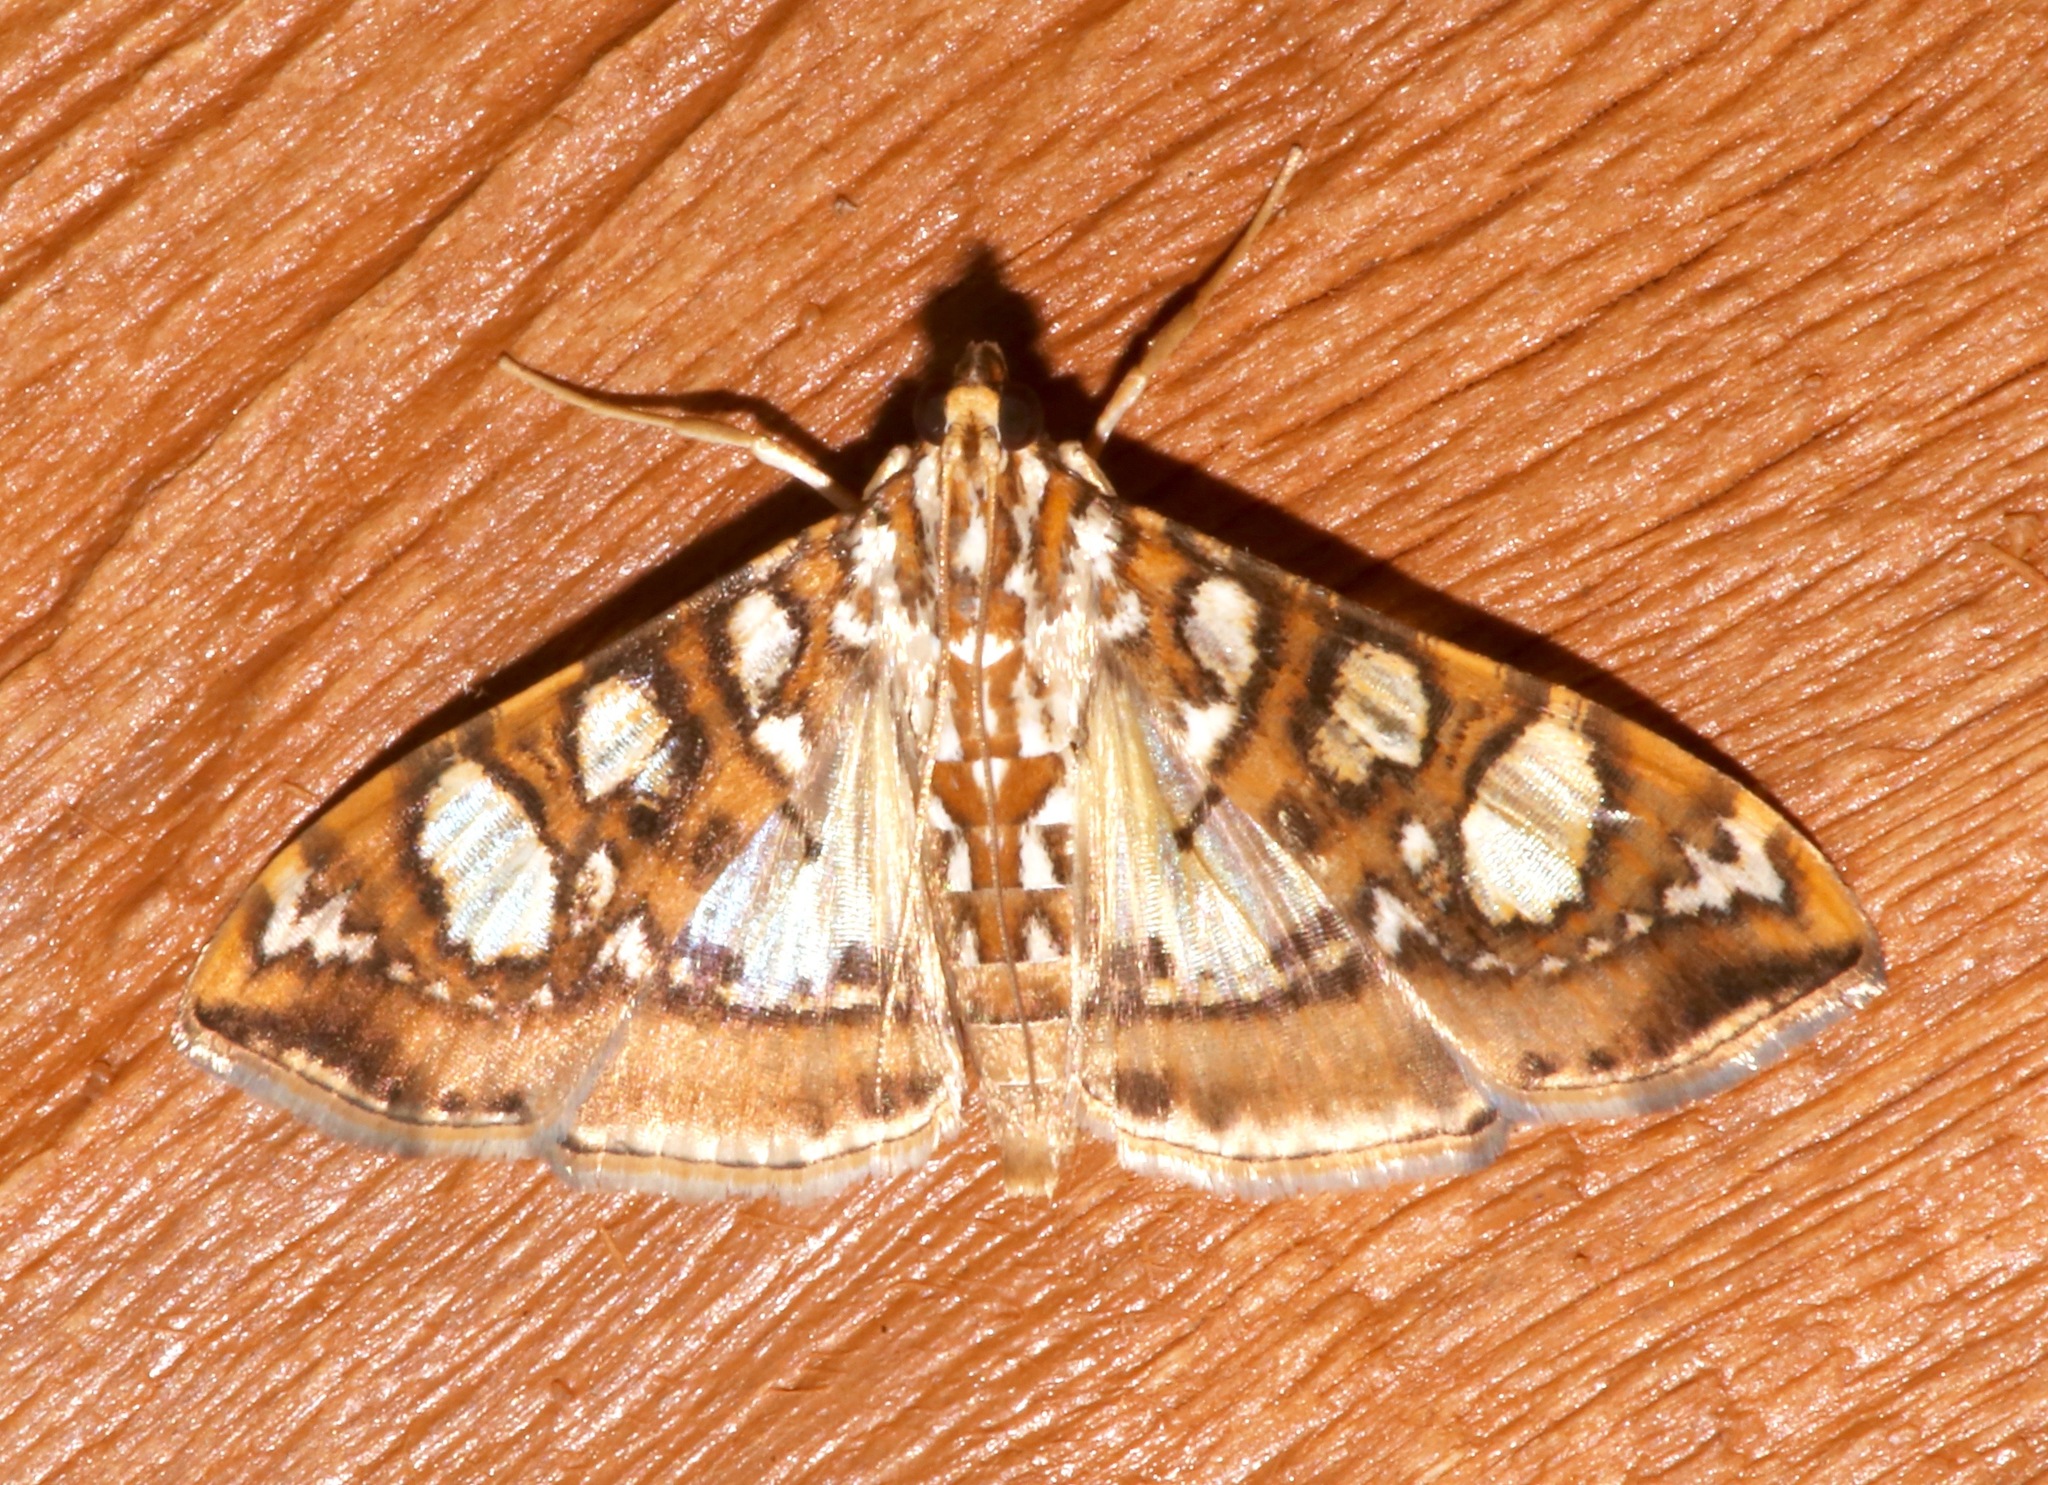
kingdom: Animalia
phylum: Arthropoda
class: Insecta
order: Lepidoptera
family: Crambidae
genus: Glyphodes
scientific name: Glyphodes sibillalis
